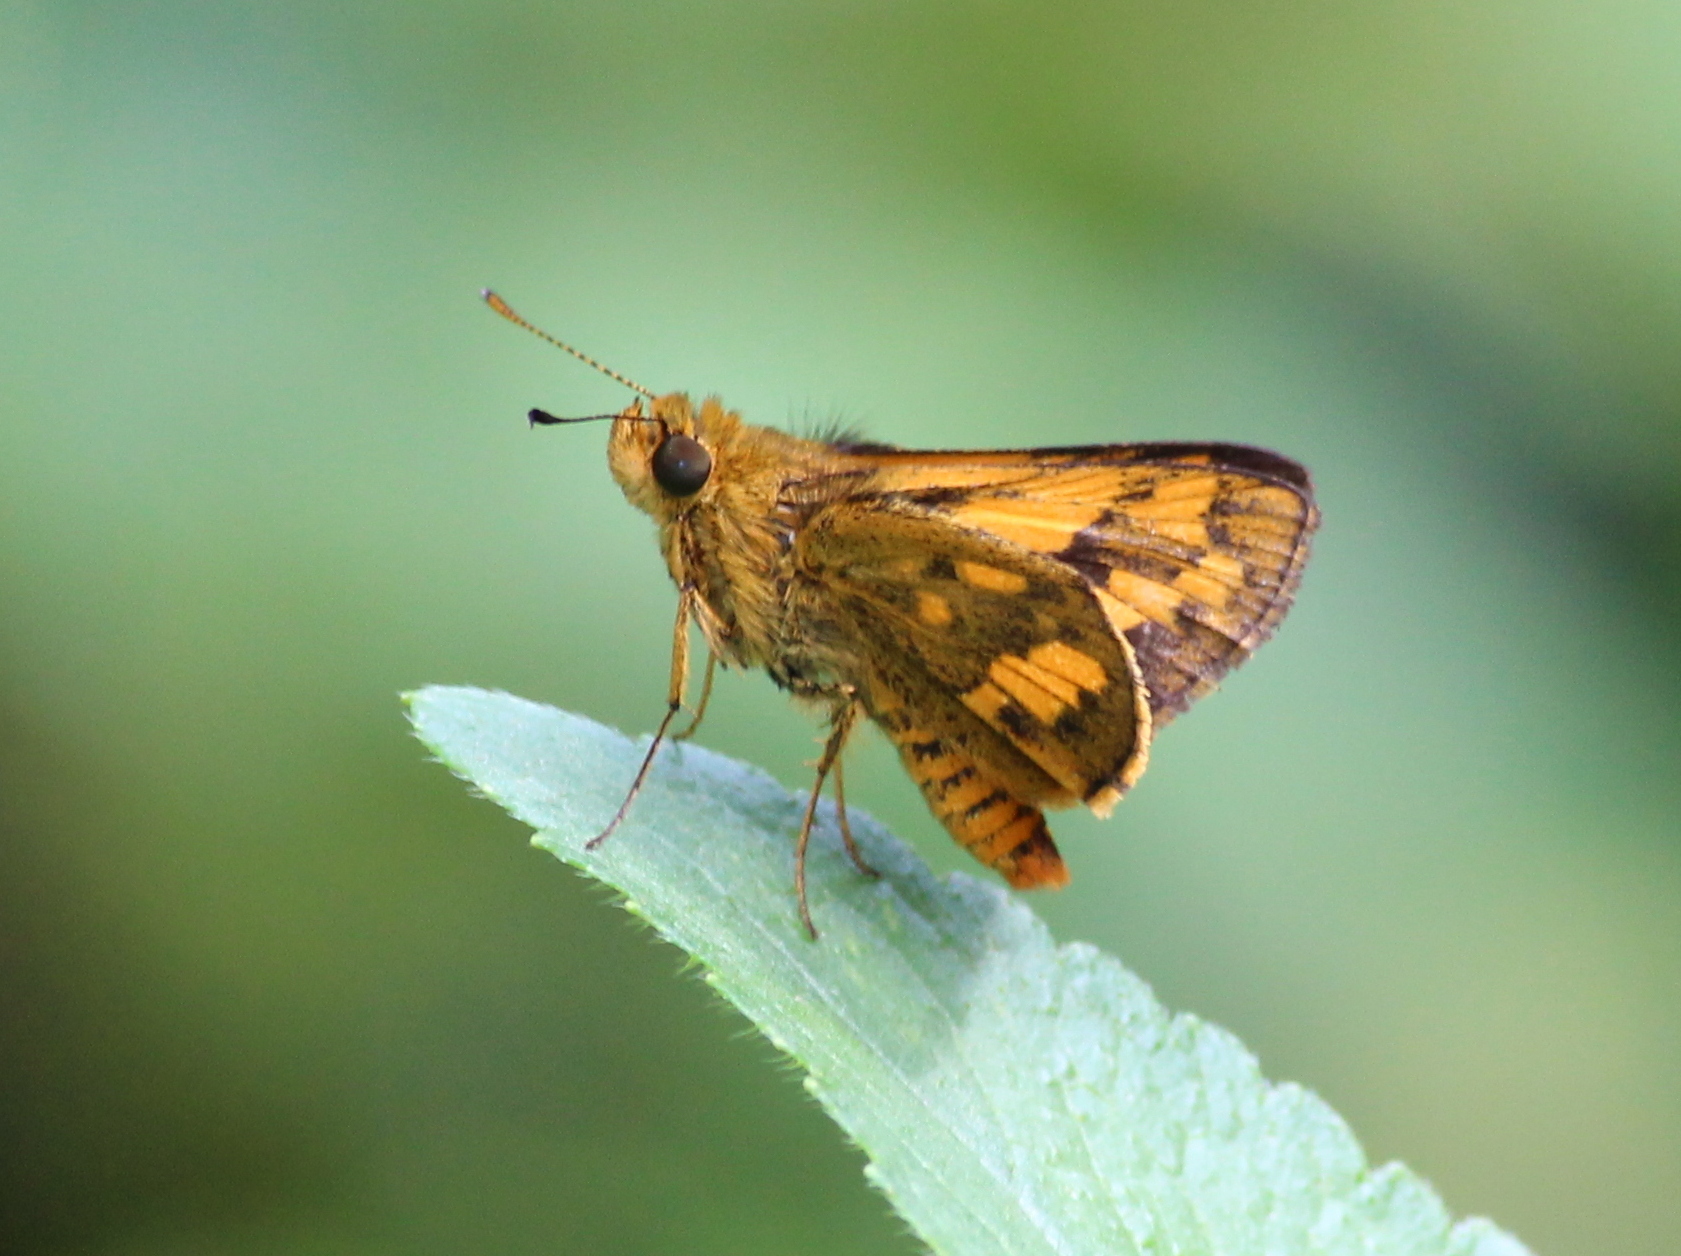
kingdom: Animalia
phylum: Arthropoda
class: Insecta
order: Lepidoptera
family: Hesperiidae
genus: Potanthus
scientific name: Potanthus omaha
